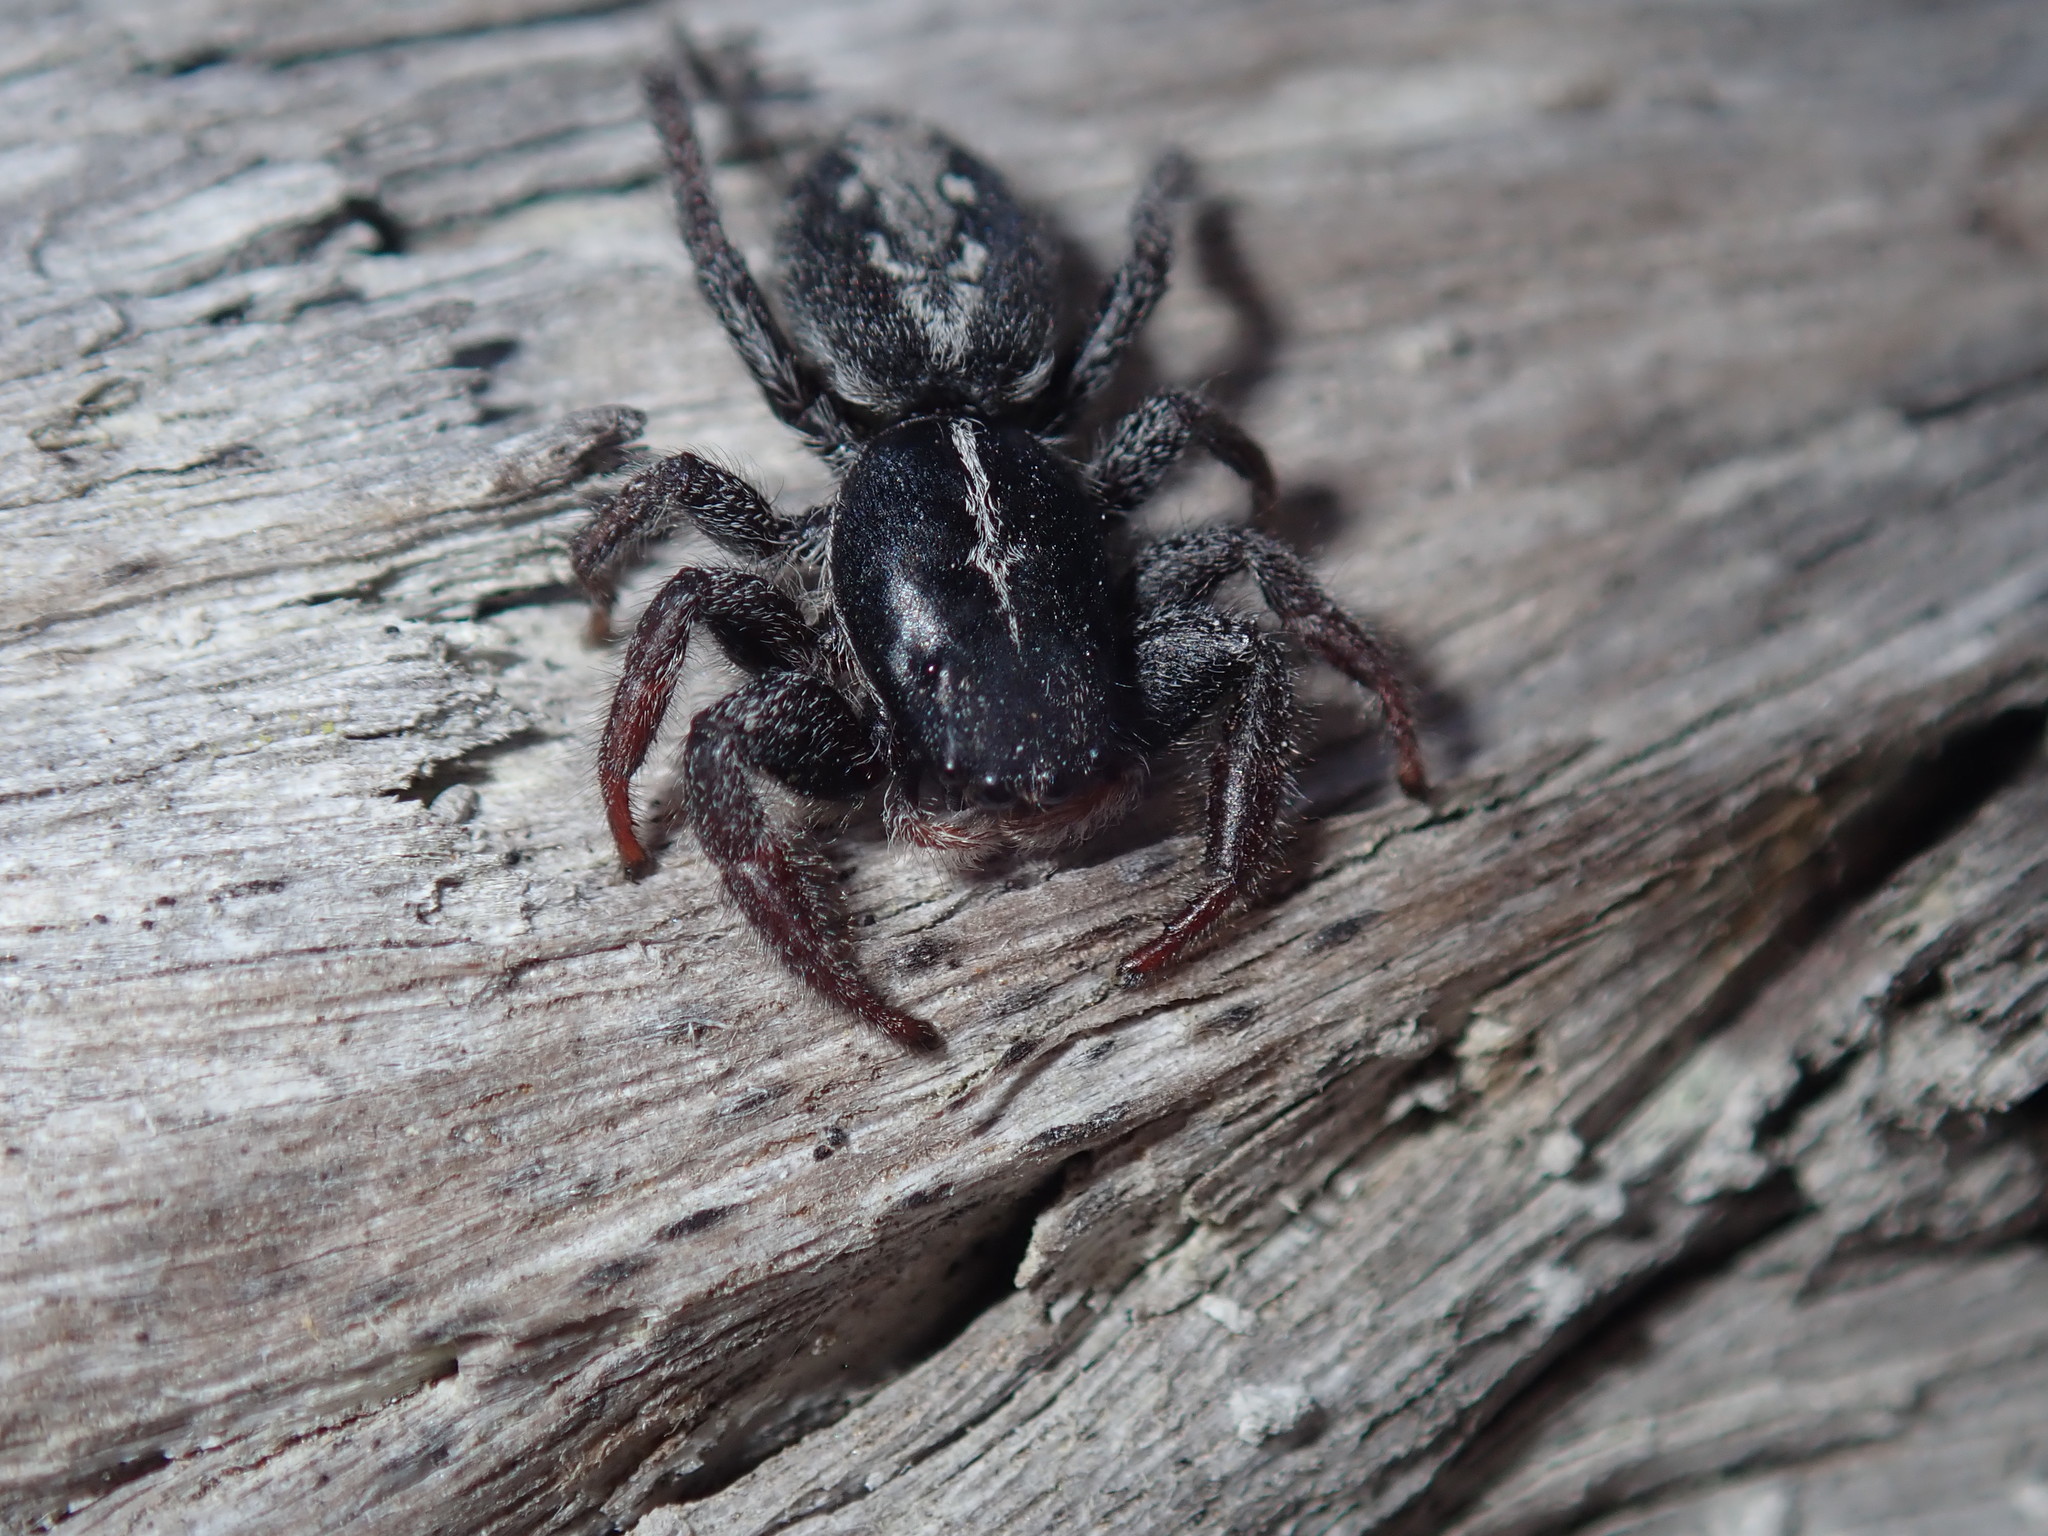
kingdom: Animalia
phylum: Arthropoda
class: Arachnida
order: Araneae
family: Salticidae
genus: Ocrisiona
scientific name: Ocrisiona leucocomis
